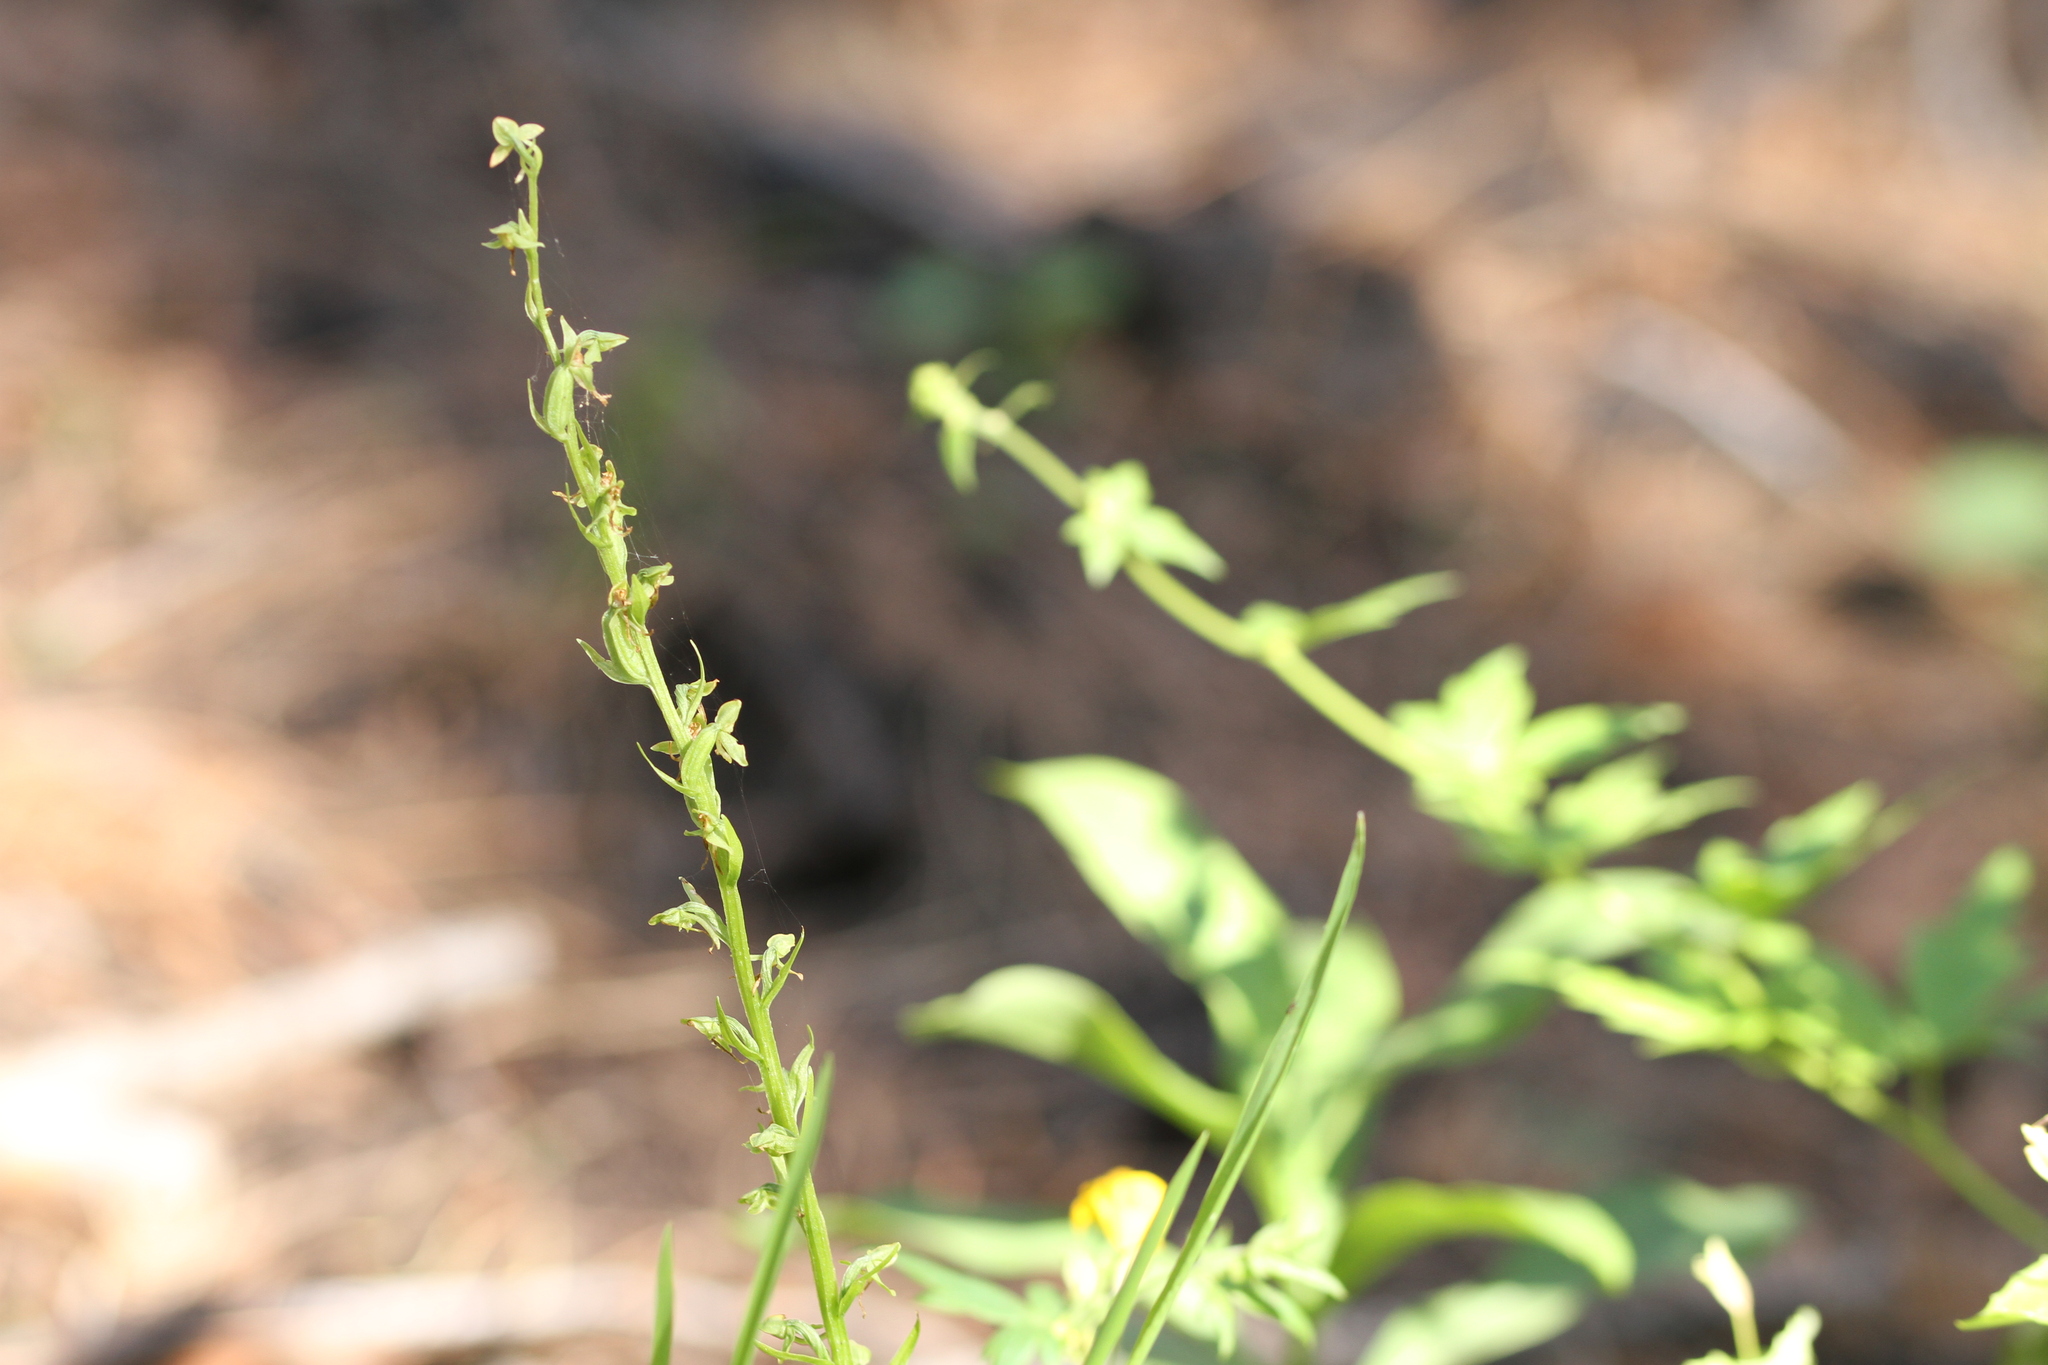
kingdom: Plantae
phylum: Tracheophyta
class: Liliopsida
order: Asparagales
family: Orchidaceae
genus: Platanthera
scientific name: Platanthera sparsiflora
